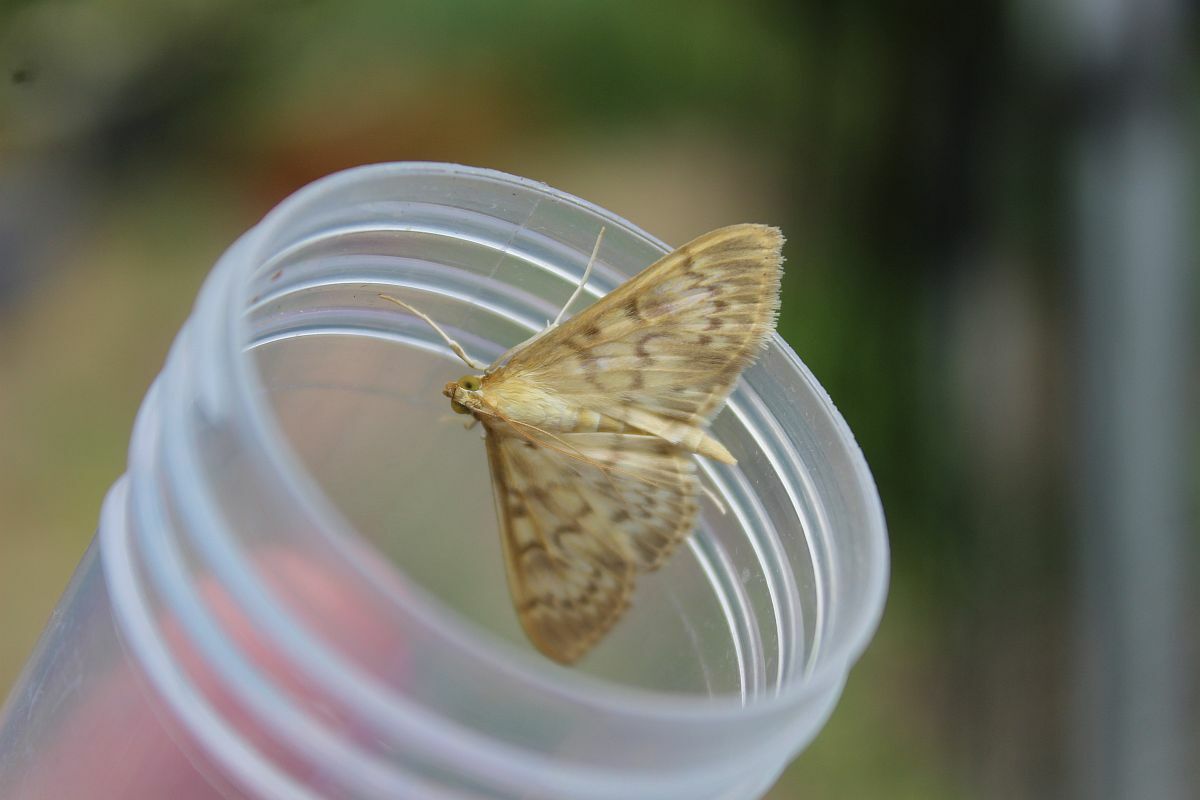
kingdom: Animalia
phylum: Arthropoda
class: Insecta
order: Lepidoptera
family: Crambidae
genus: Patania
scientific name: Patania ruralis
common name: Mother of pearl
